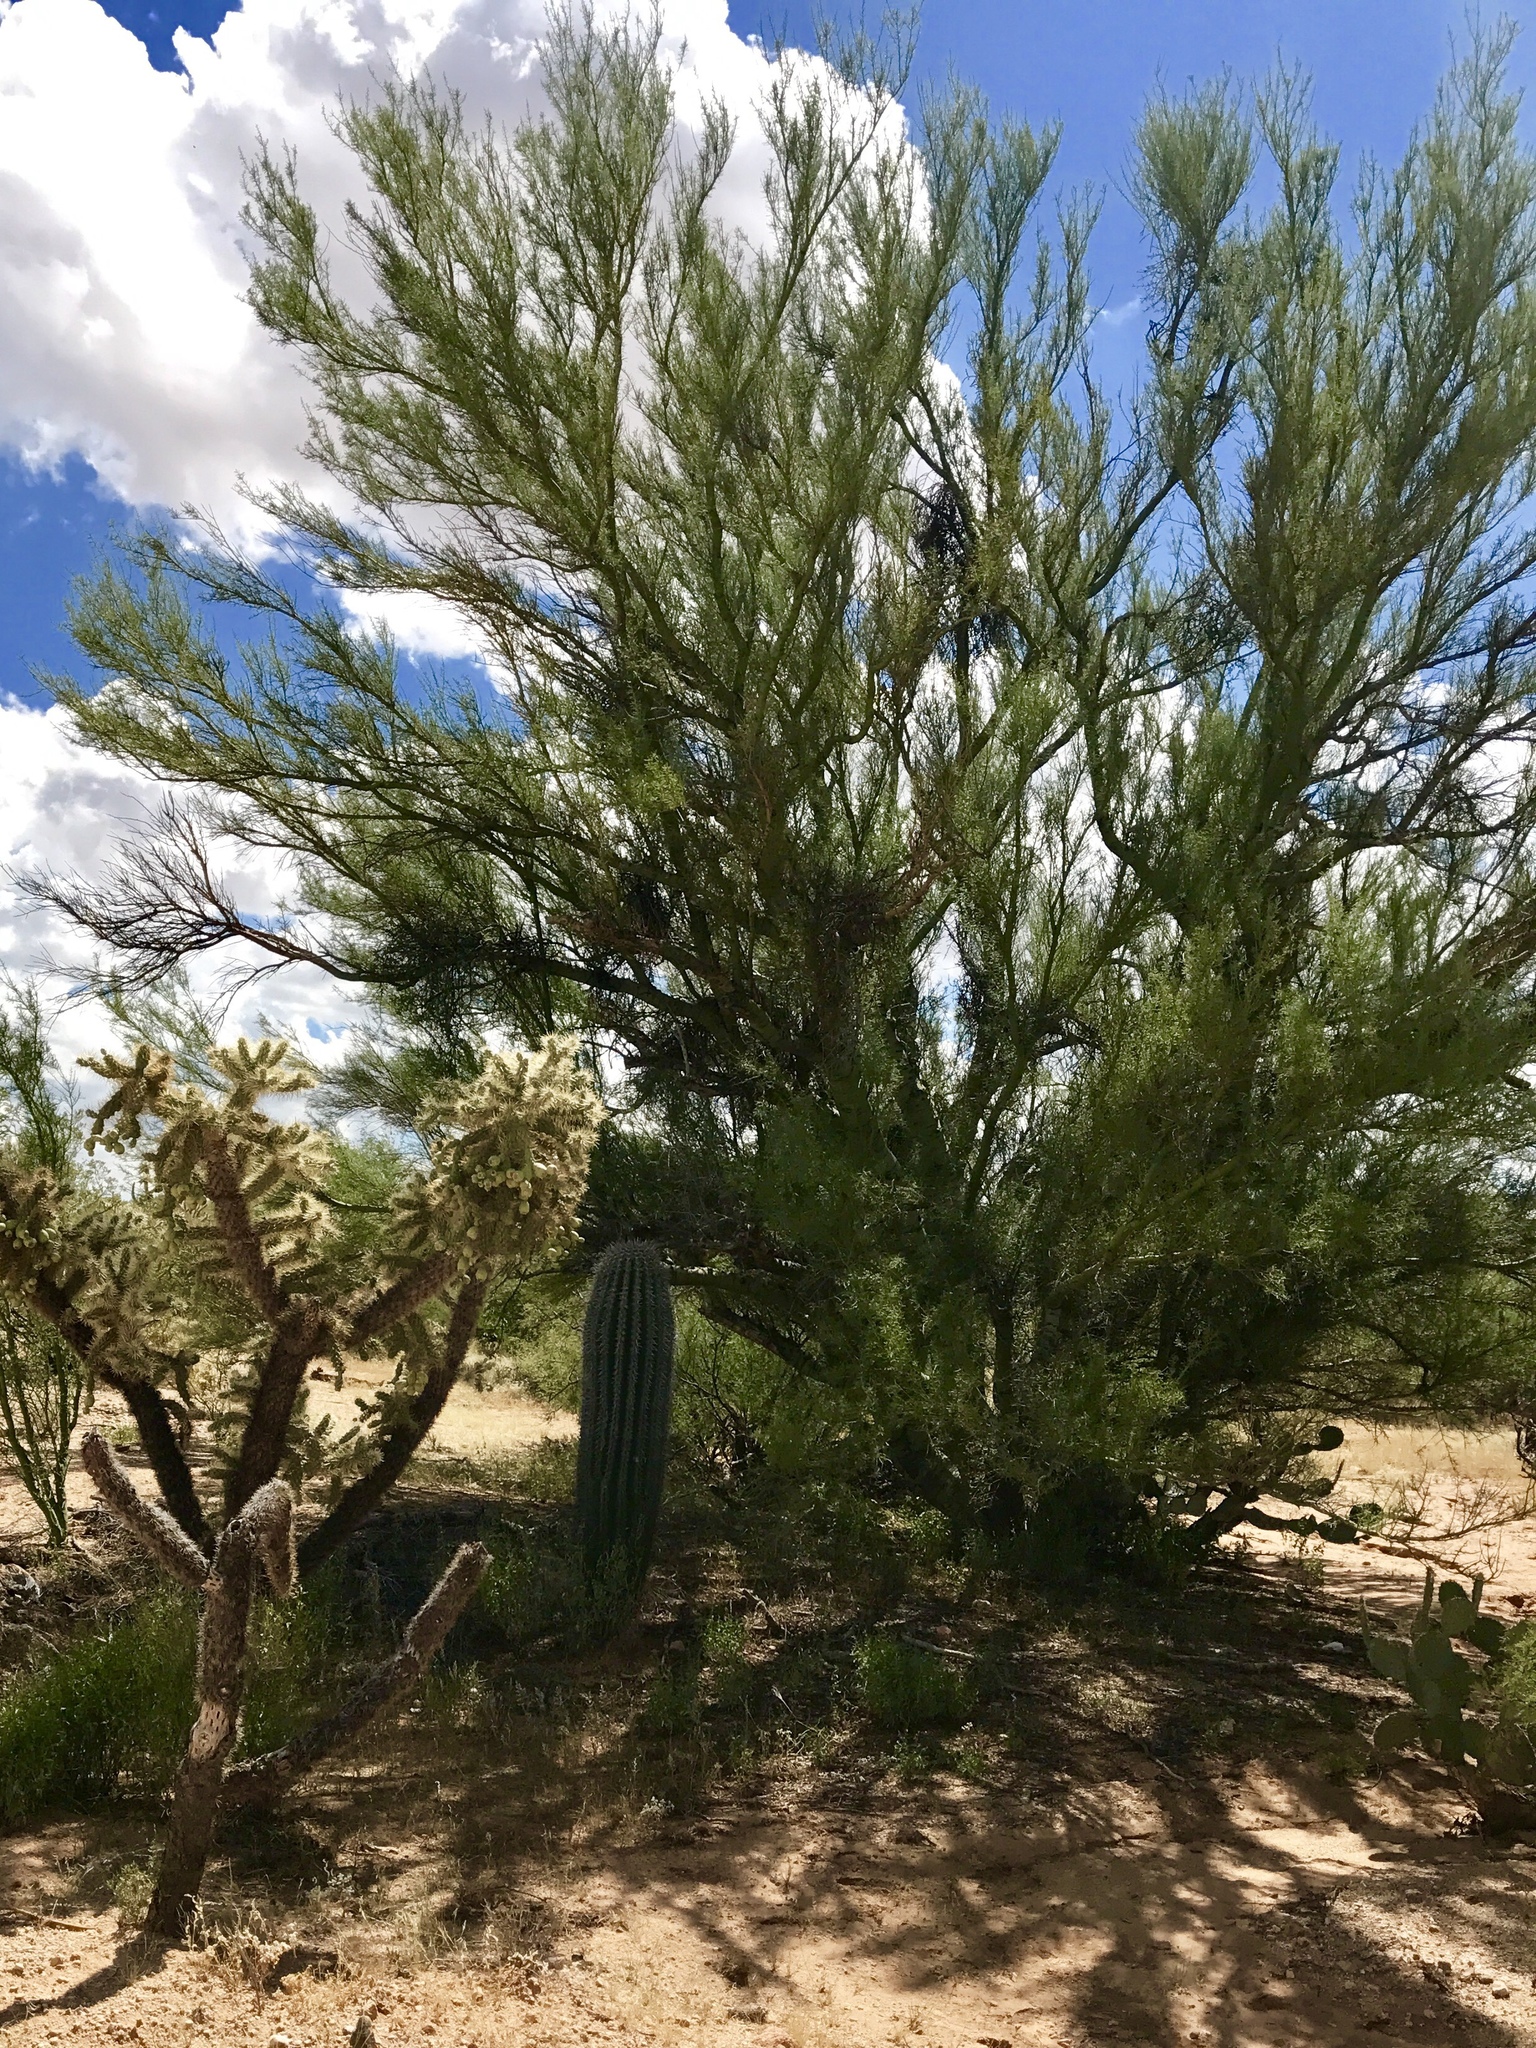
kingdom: Plantae
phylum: Tracheophyta
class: Magnoliopsida
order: Fabales
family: Fabaceae
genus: Parkinsonia
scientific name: Parkinsonia microphylla
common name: Yellow paloverde
